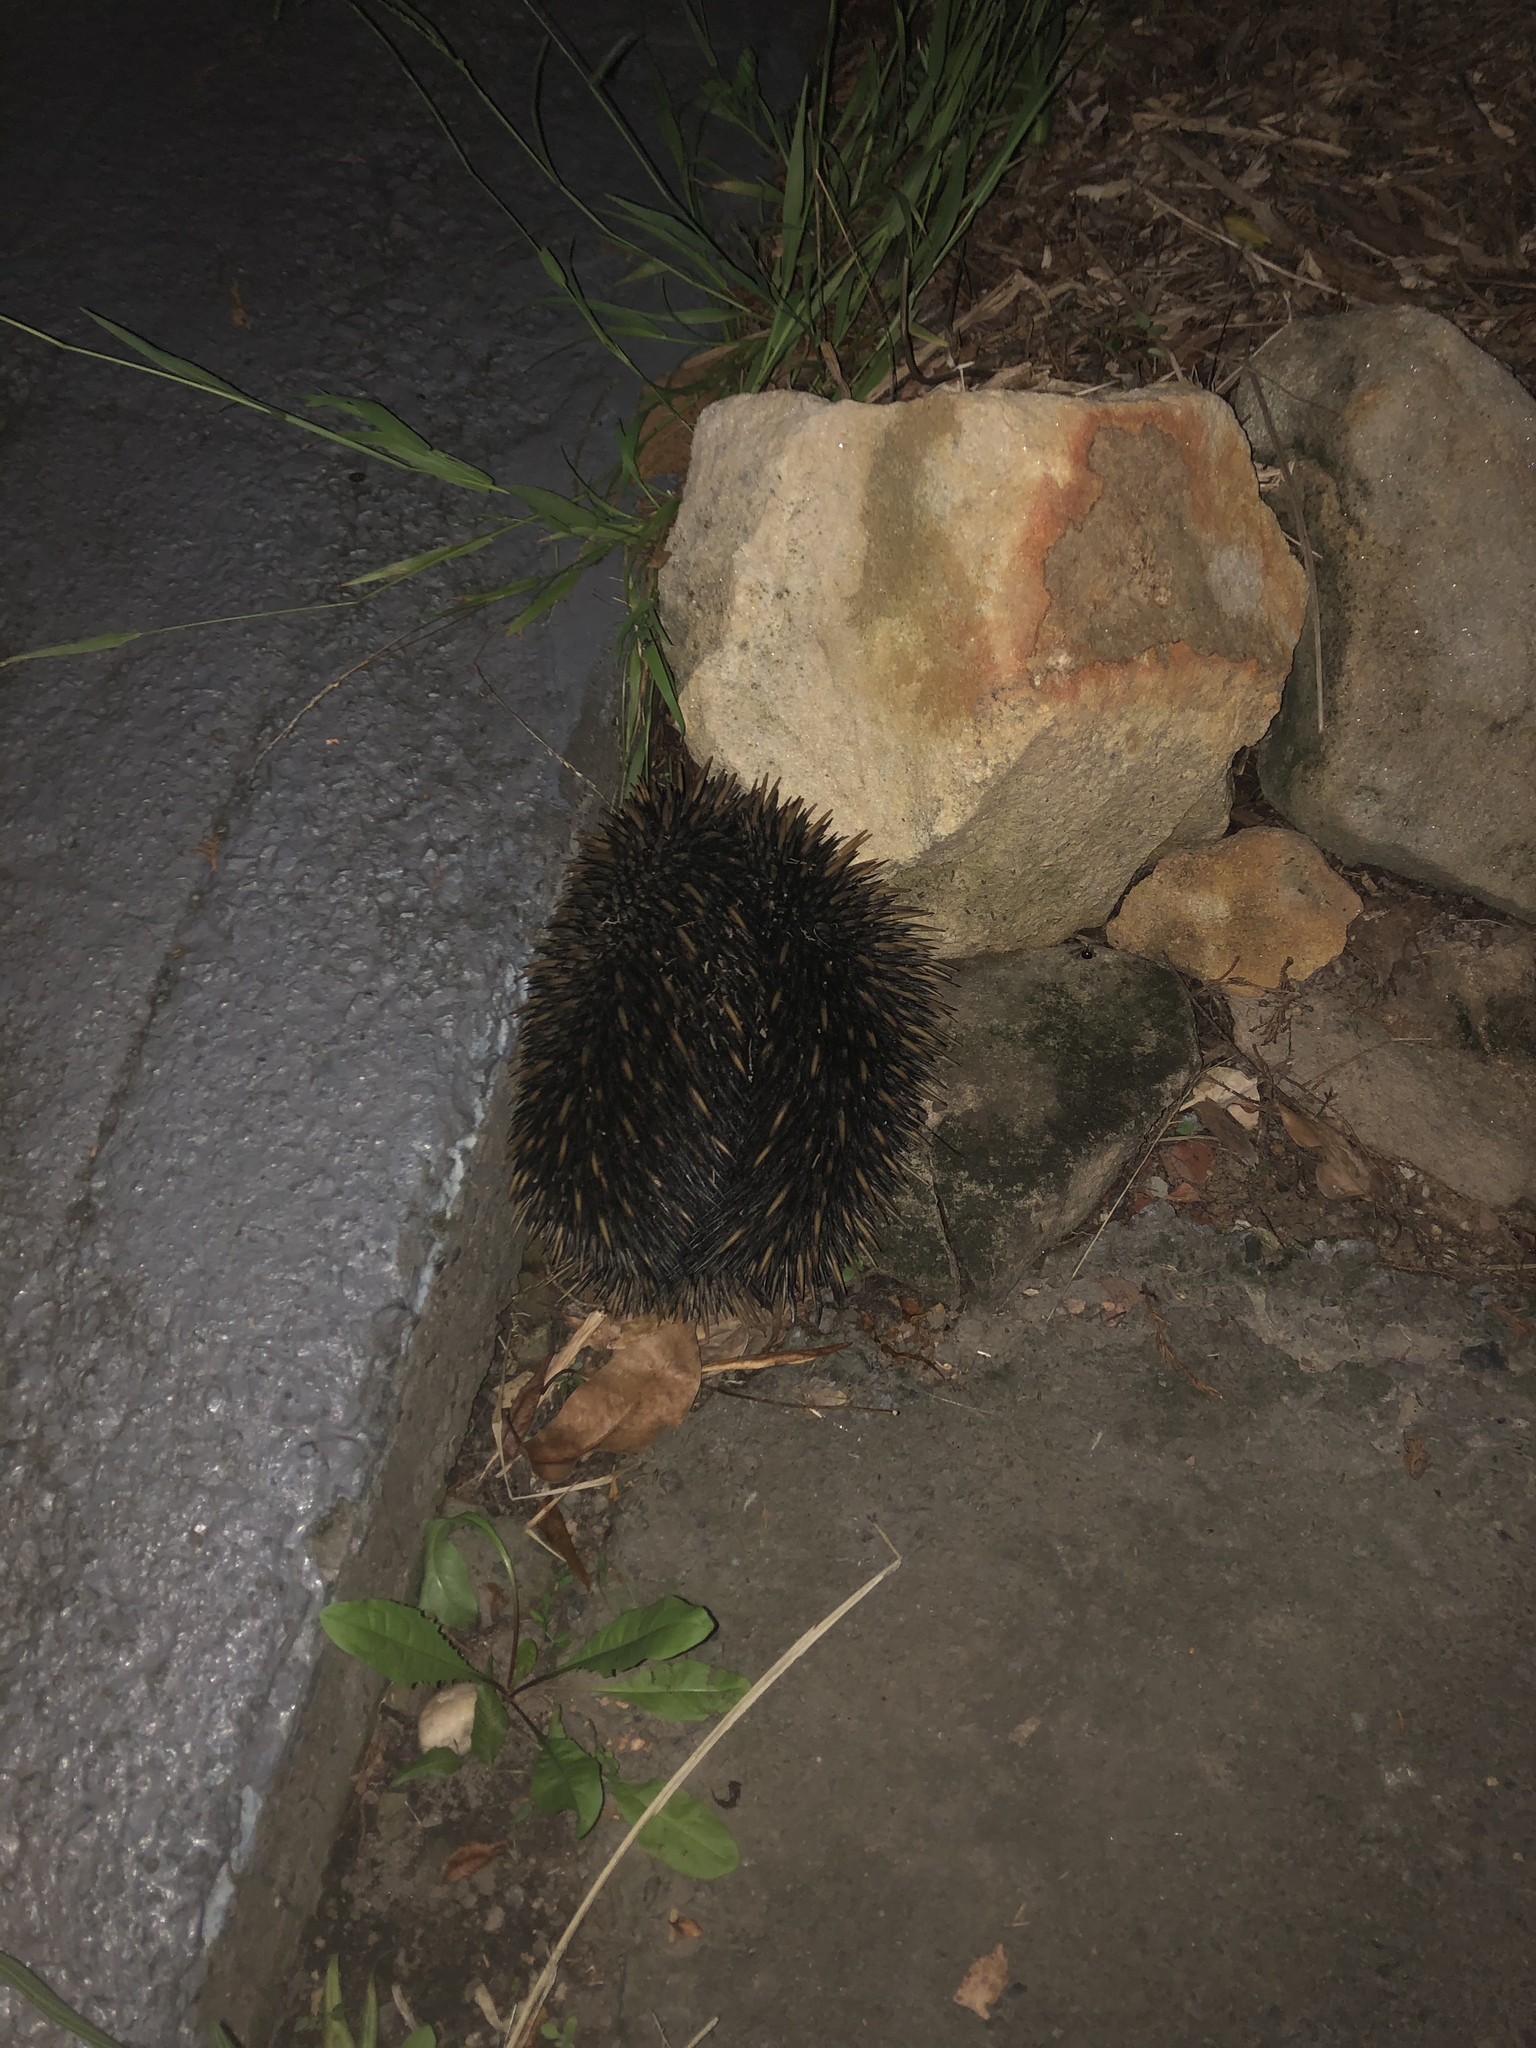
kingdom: Animalia
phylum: Chordata
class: Mammalia
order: Monotremata
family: Tachyglossidae
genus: Tachyglossus
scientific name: Tachyglossus aculeatus
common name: Short-beaked echidna
